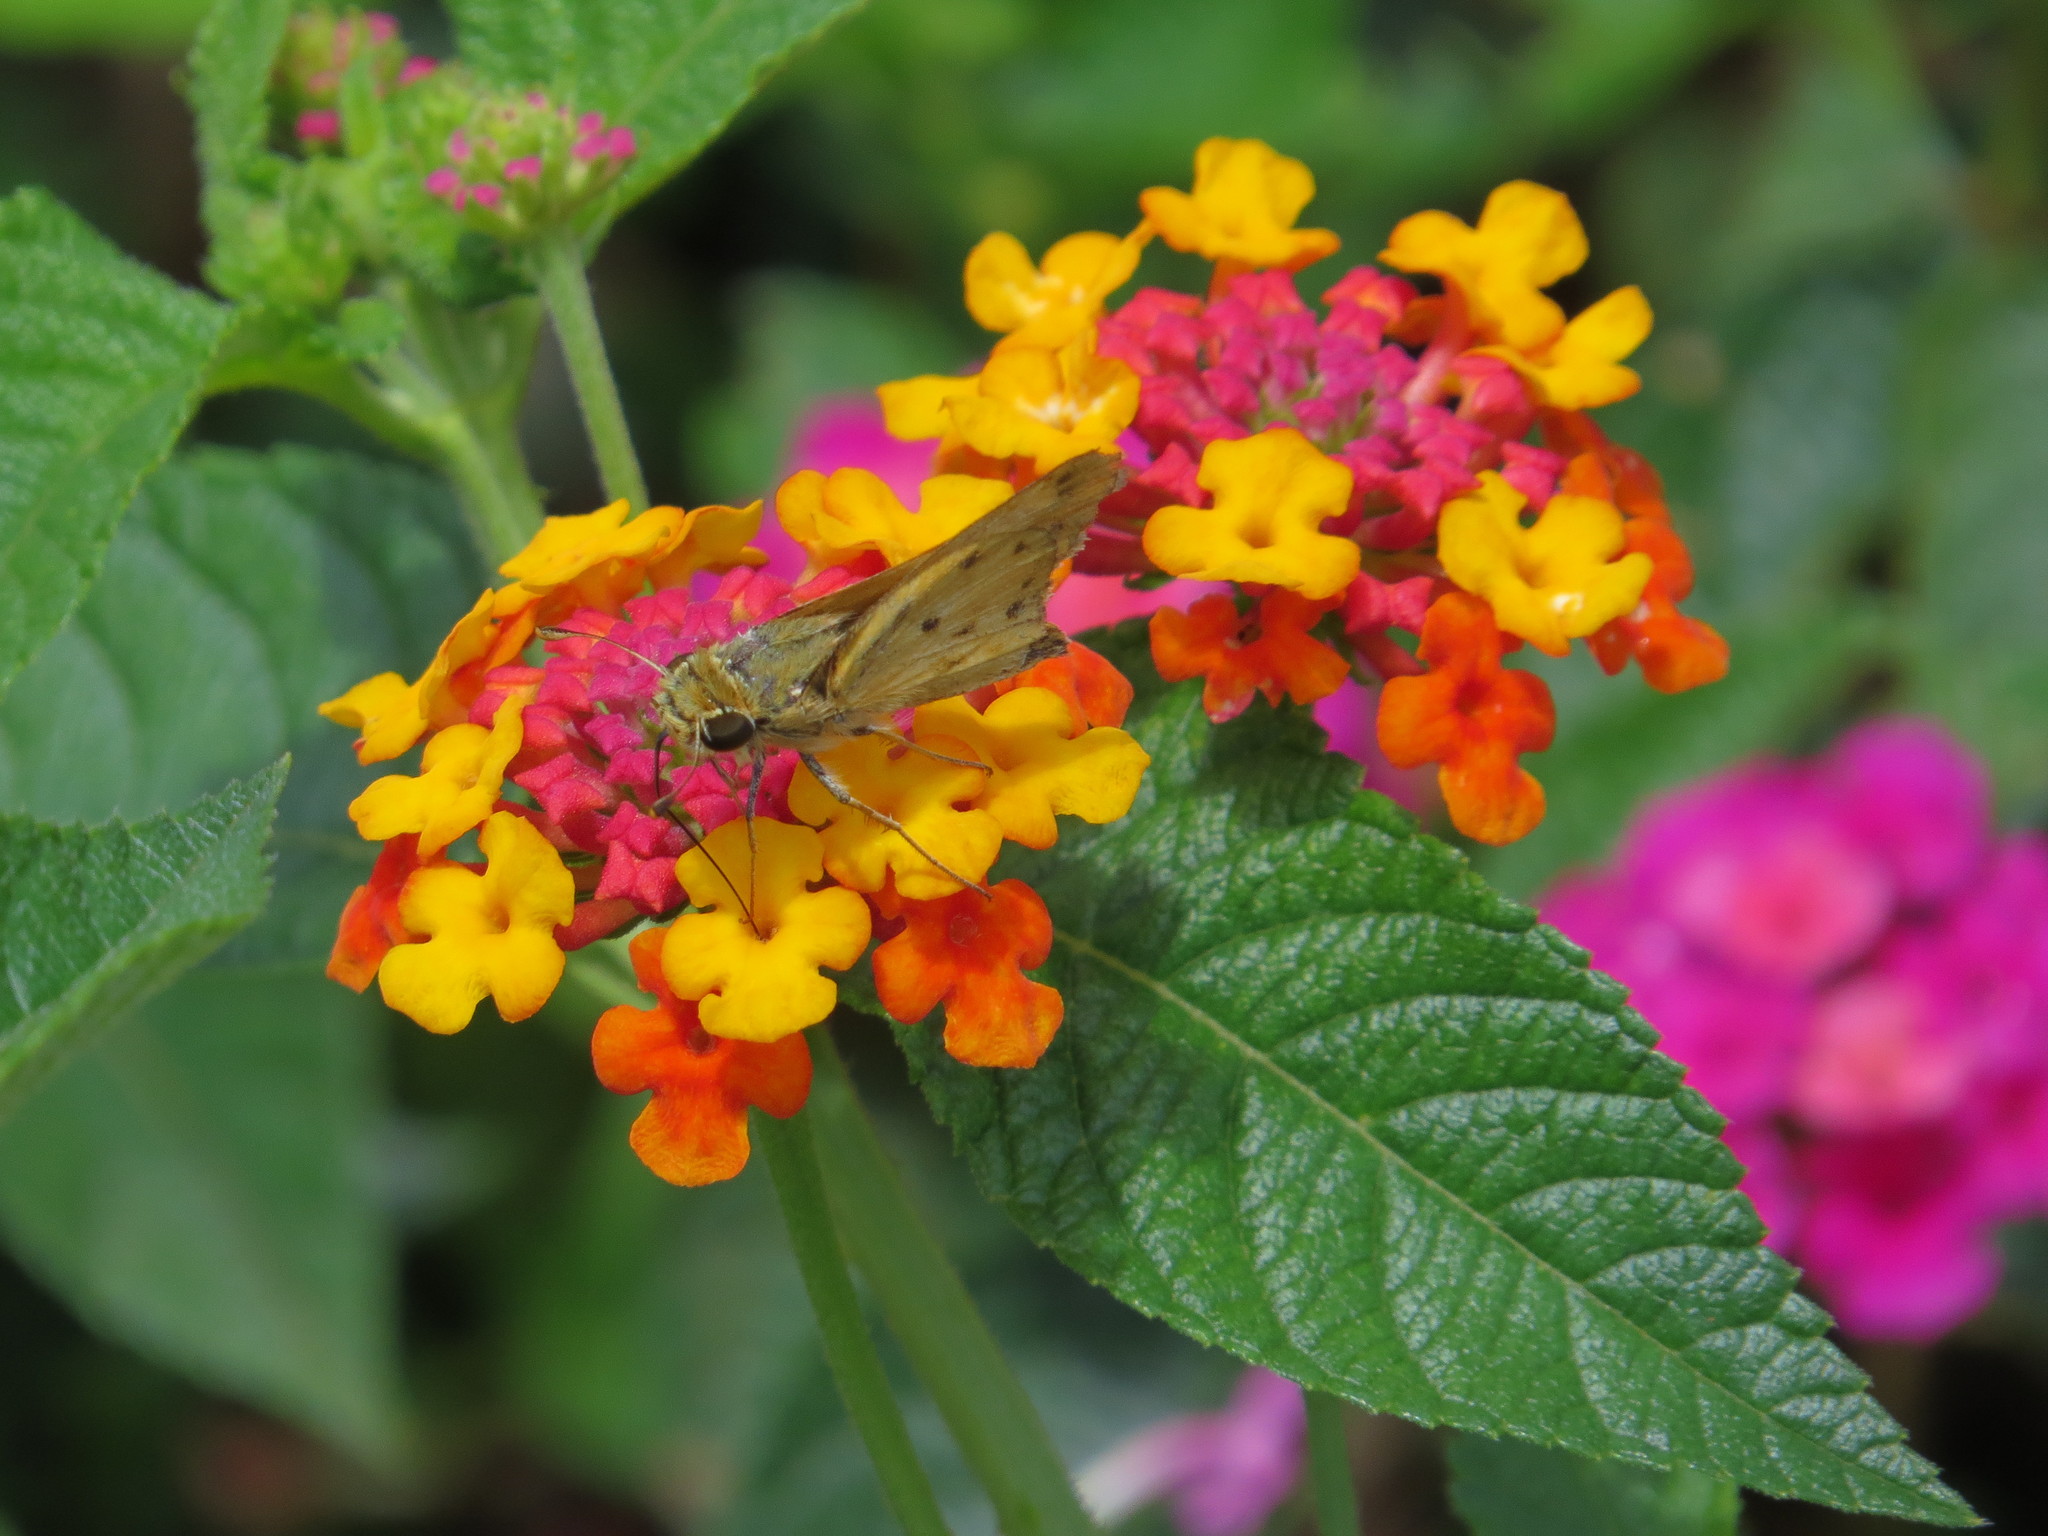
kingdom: Animalia
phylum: Arthropoda
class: Insecta
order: Lepidoptera
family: Hesperiidae
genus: Hylephila
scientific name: Hylephila phyleus
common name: Fiery skipper
